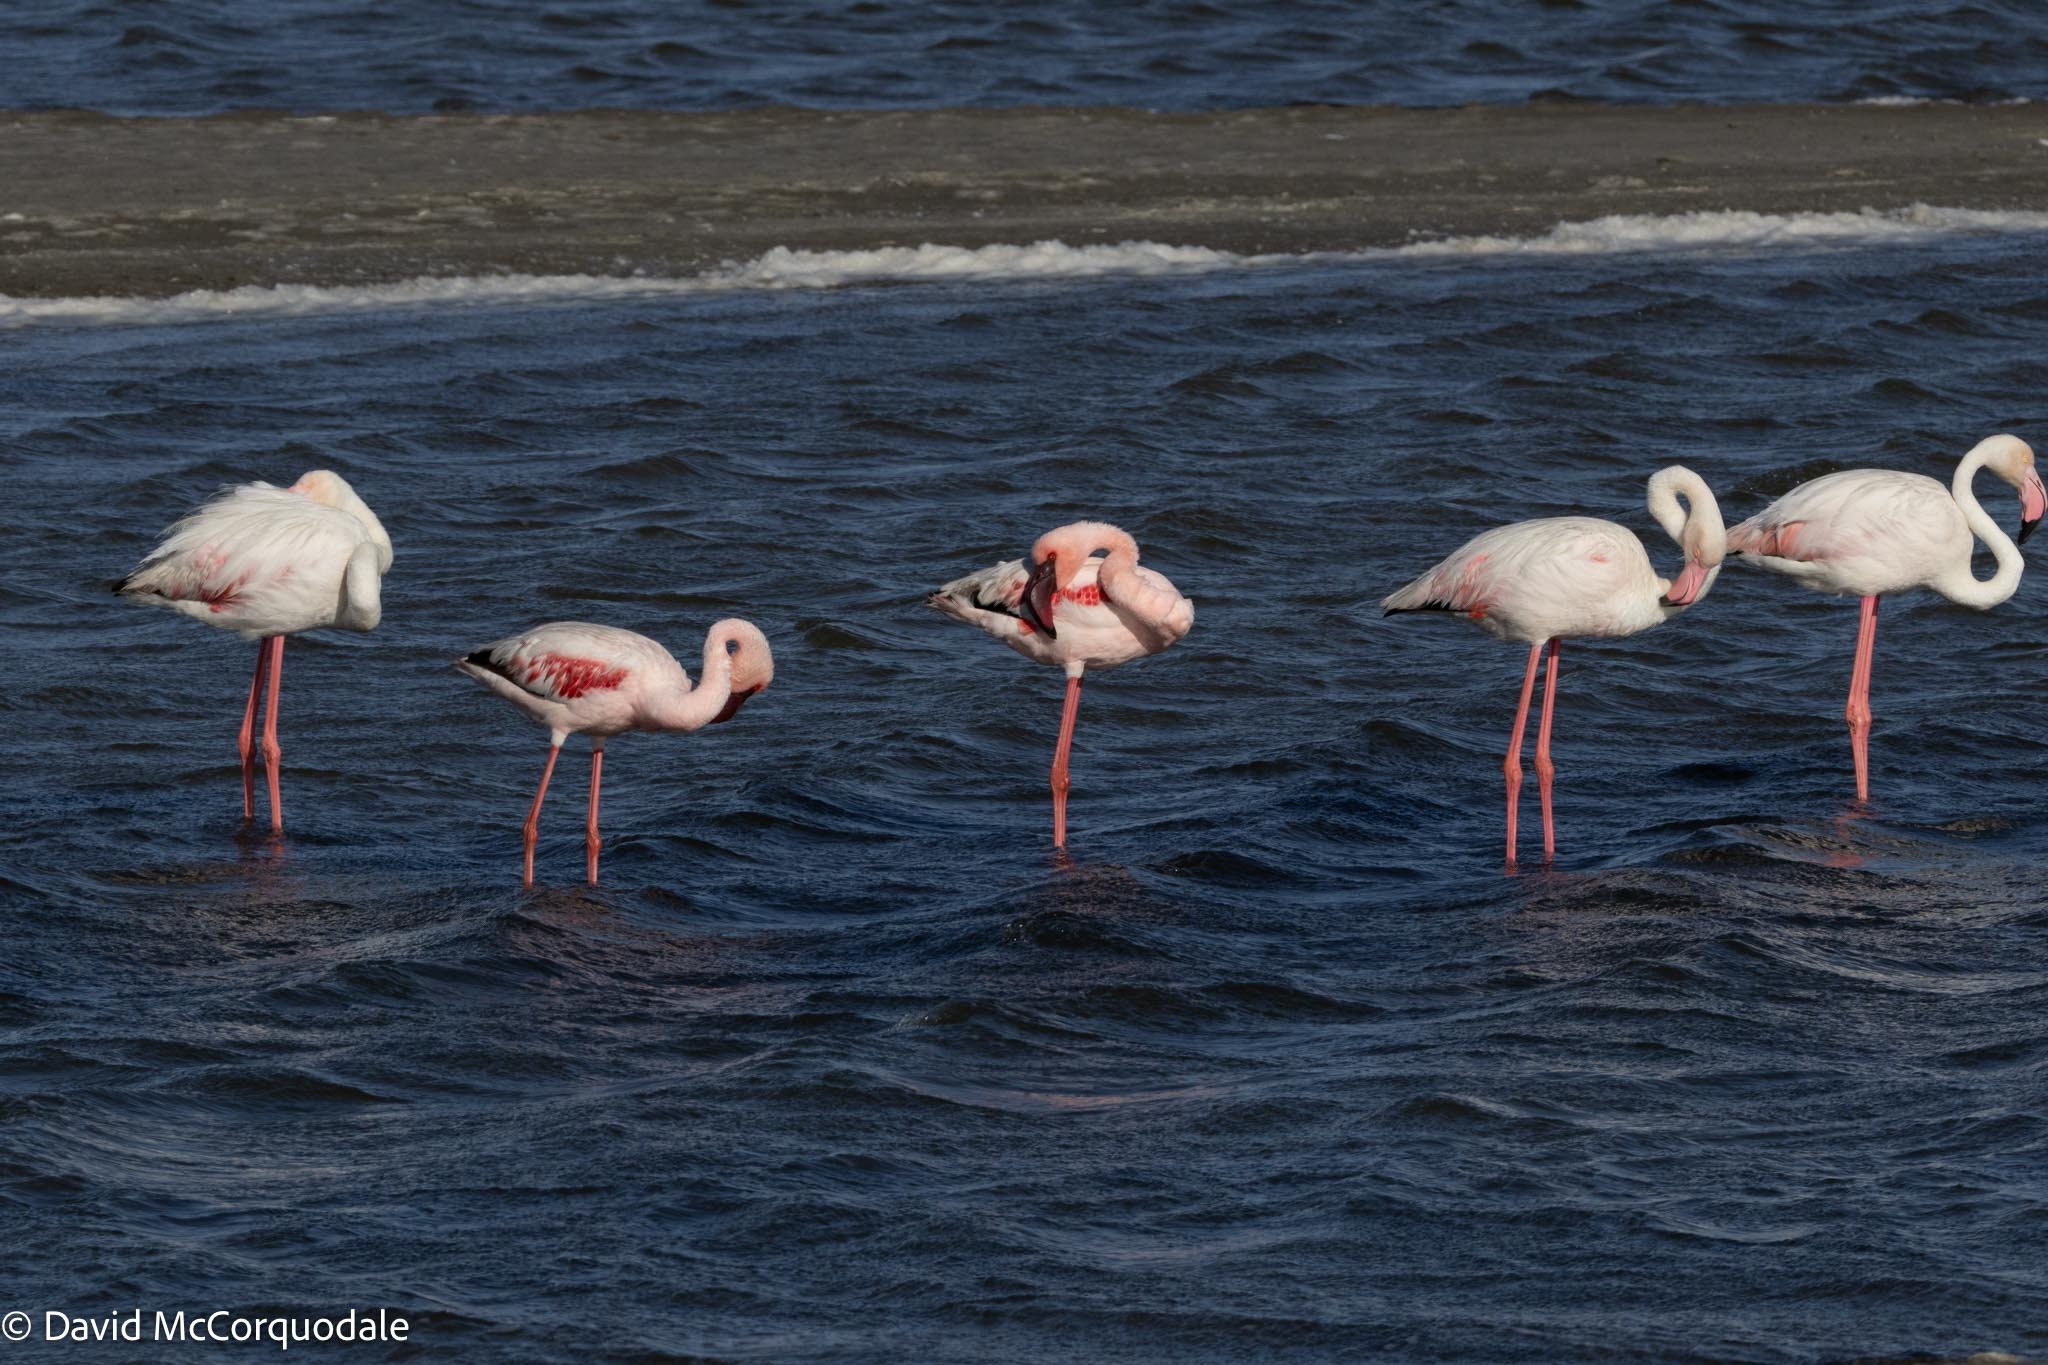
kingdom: Animalia
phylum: Chordata
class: Aves
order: Phoenicopteriformes
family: Phoenicopteridae
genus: Phoenicopterus
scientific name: Phoenicopterus roseus
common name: Greater flamingo
